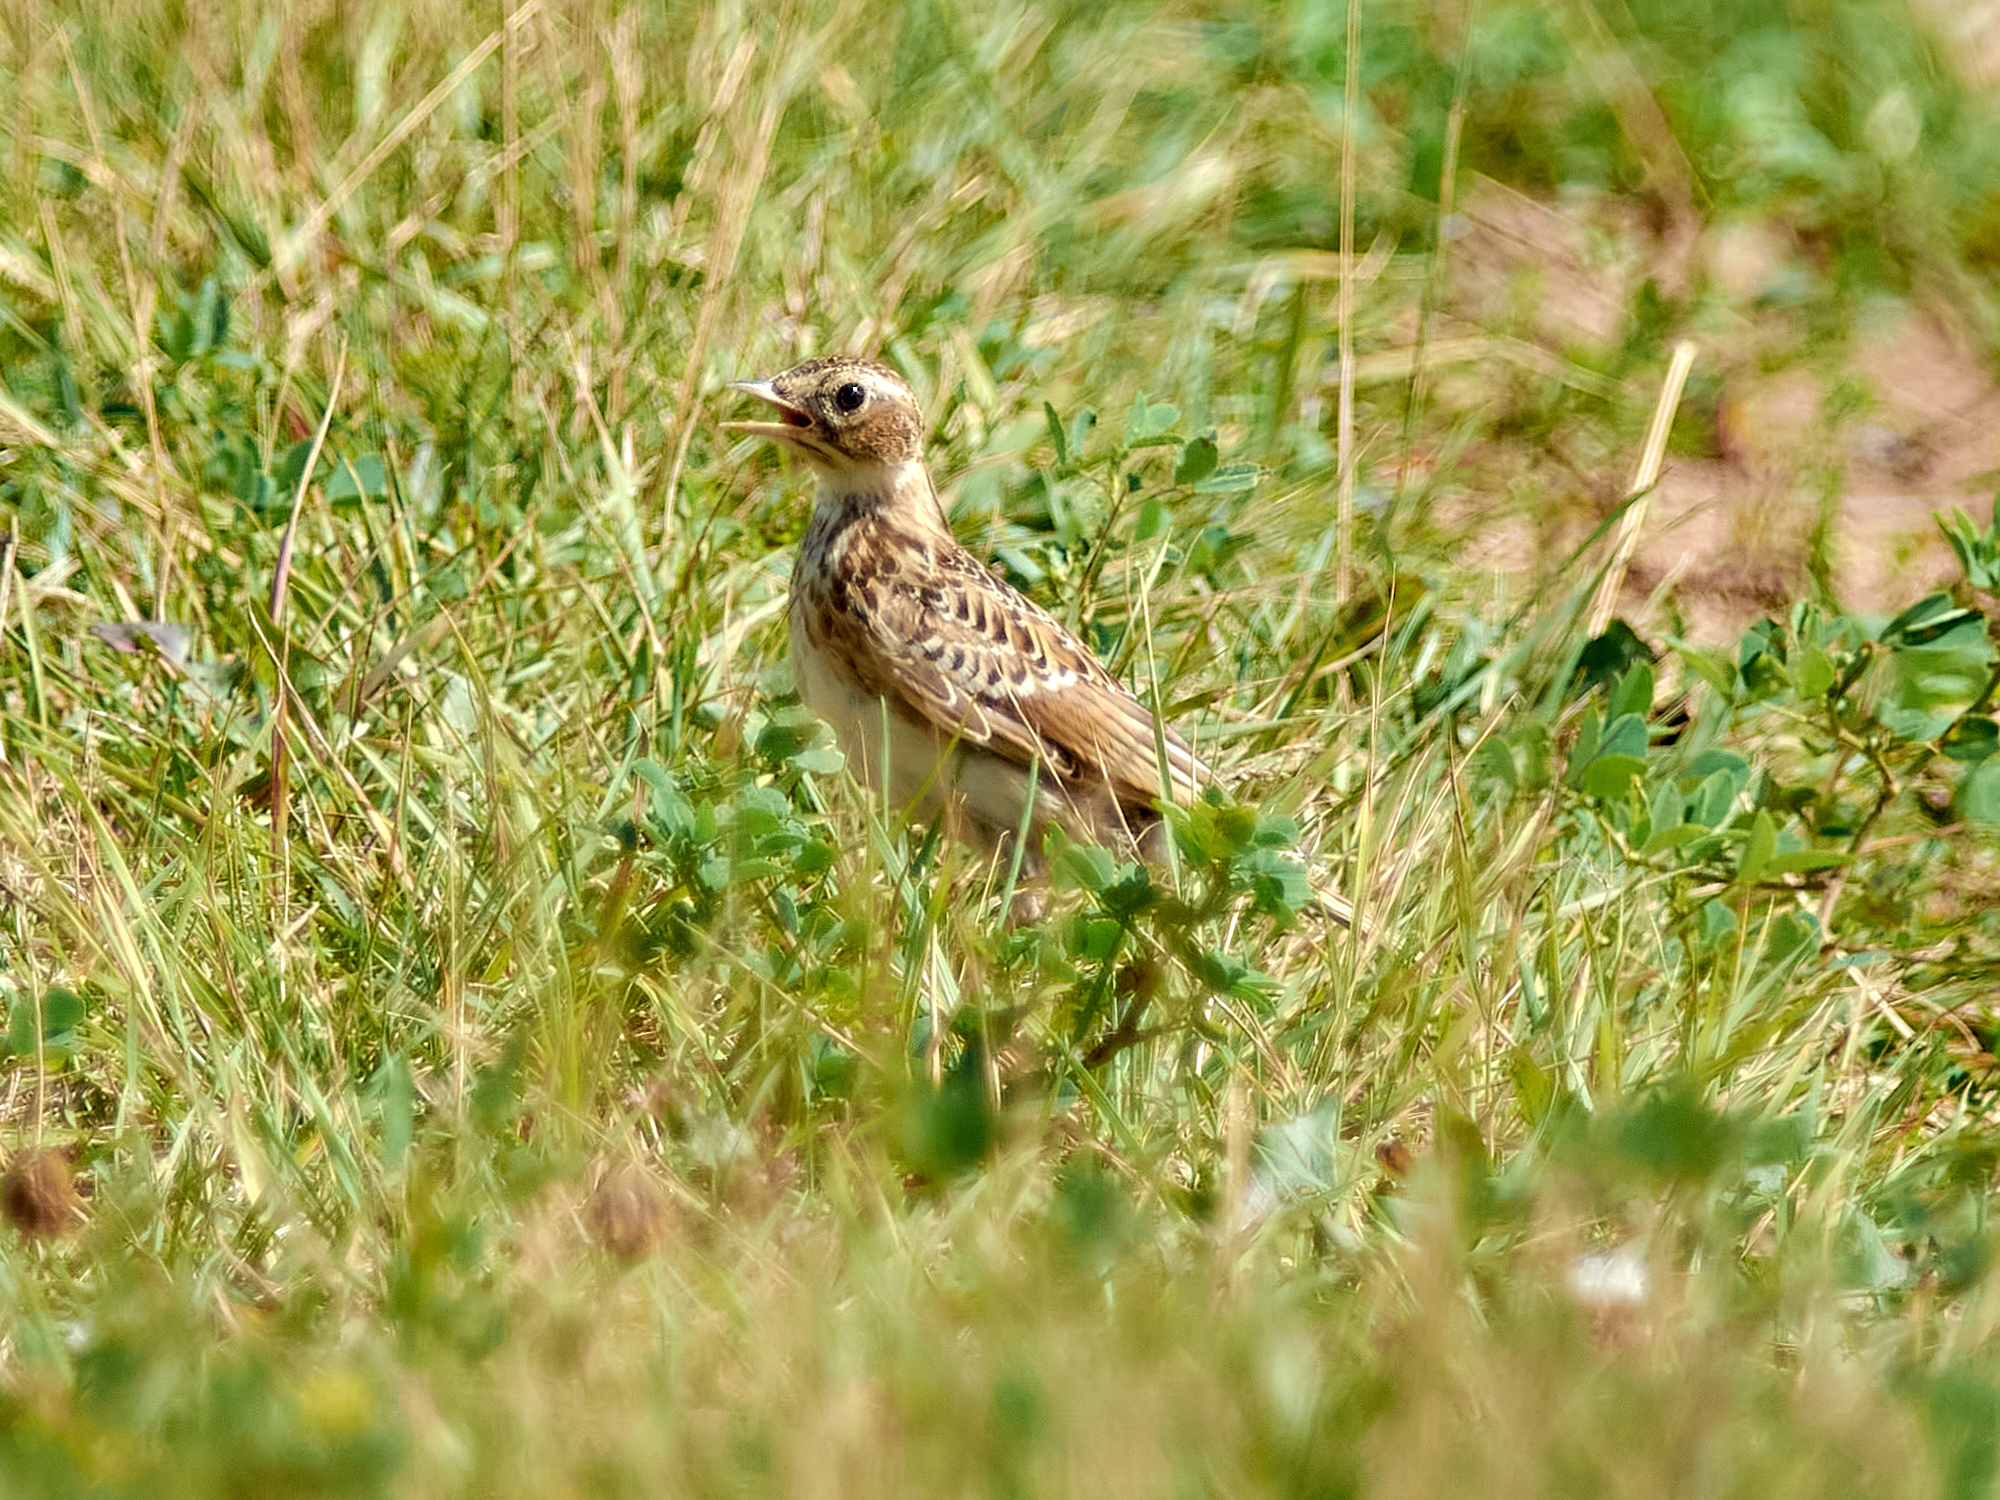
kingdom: Animalia
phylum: Chordata
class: Aves
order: Passeriformes
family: Alaudidae
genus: Alauda
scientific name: Alauda arvensis
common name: Eurasian skylark
